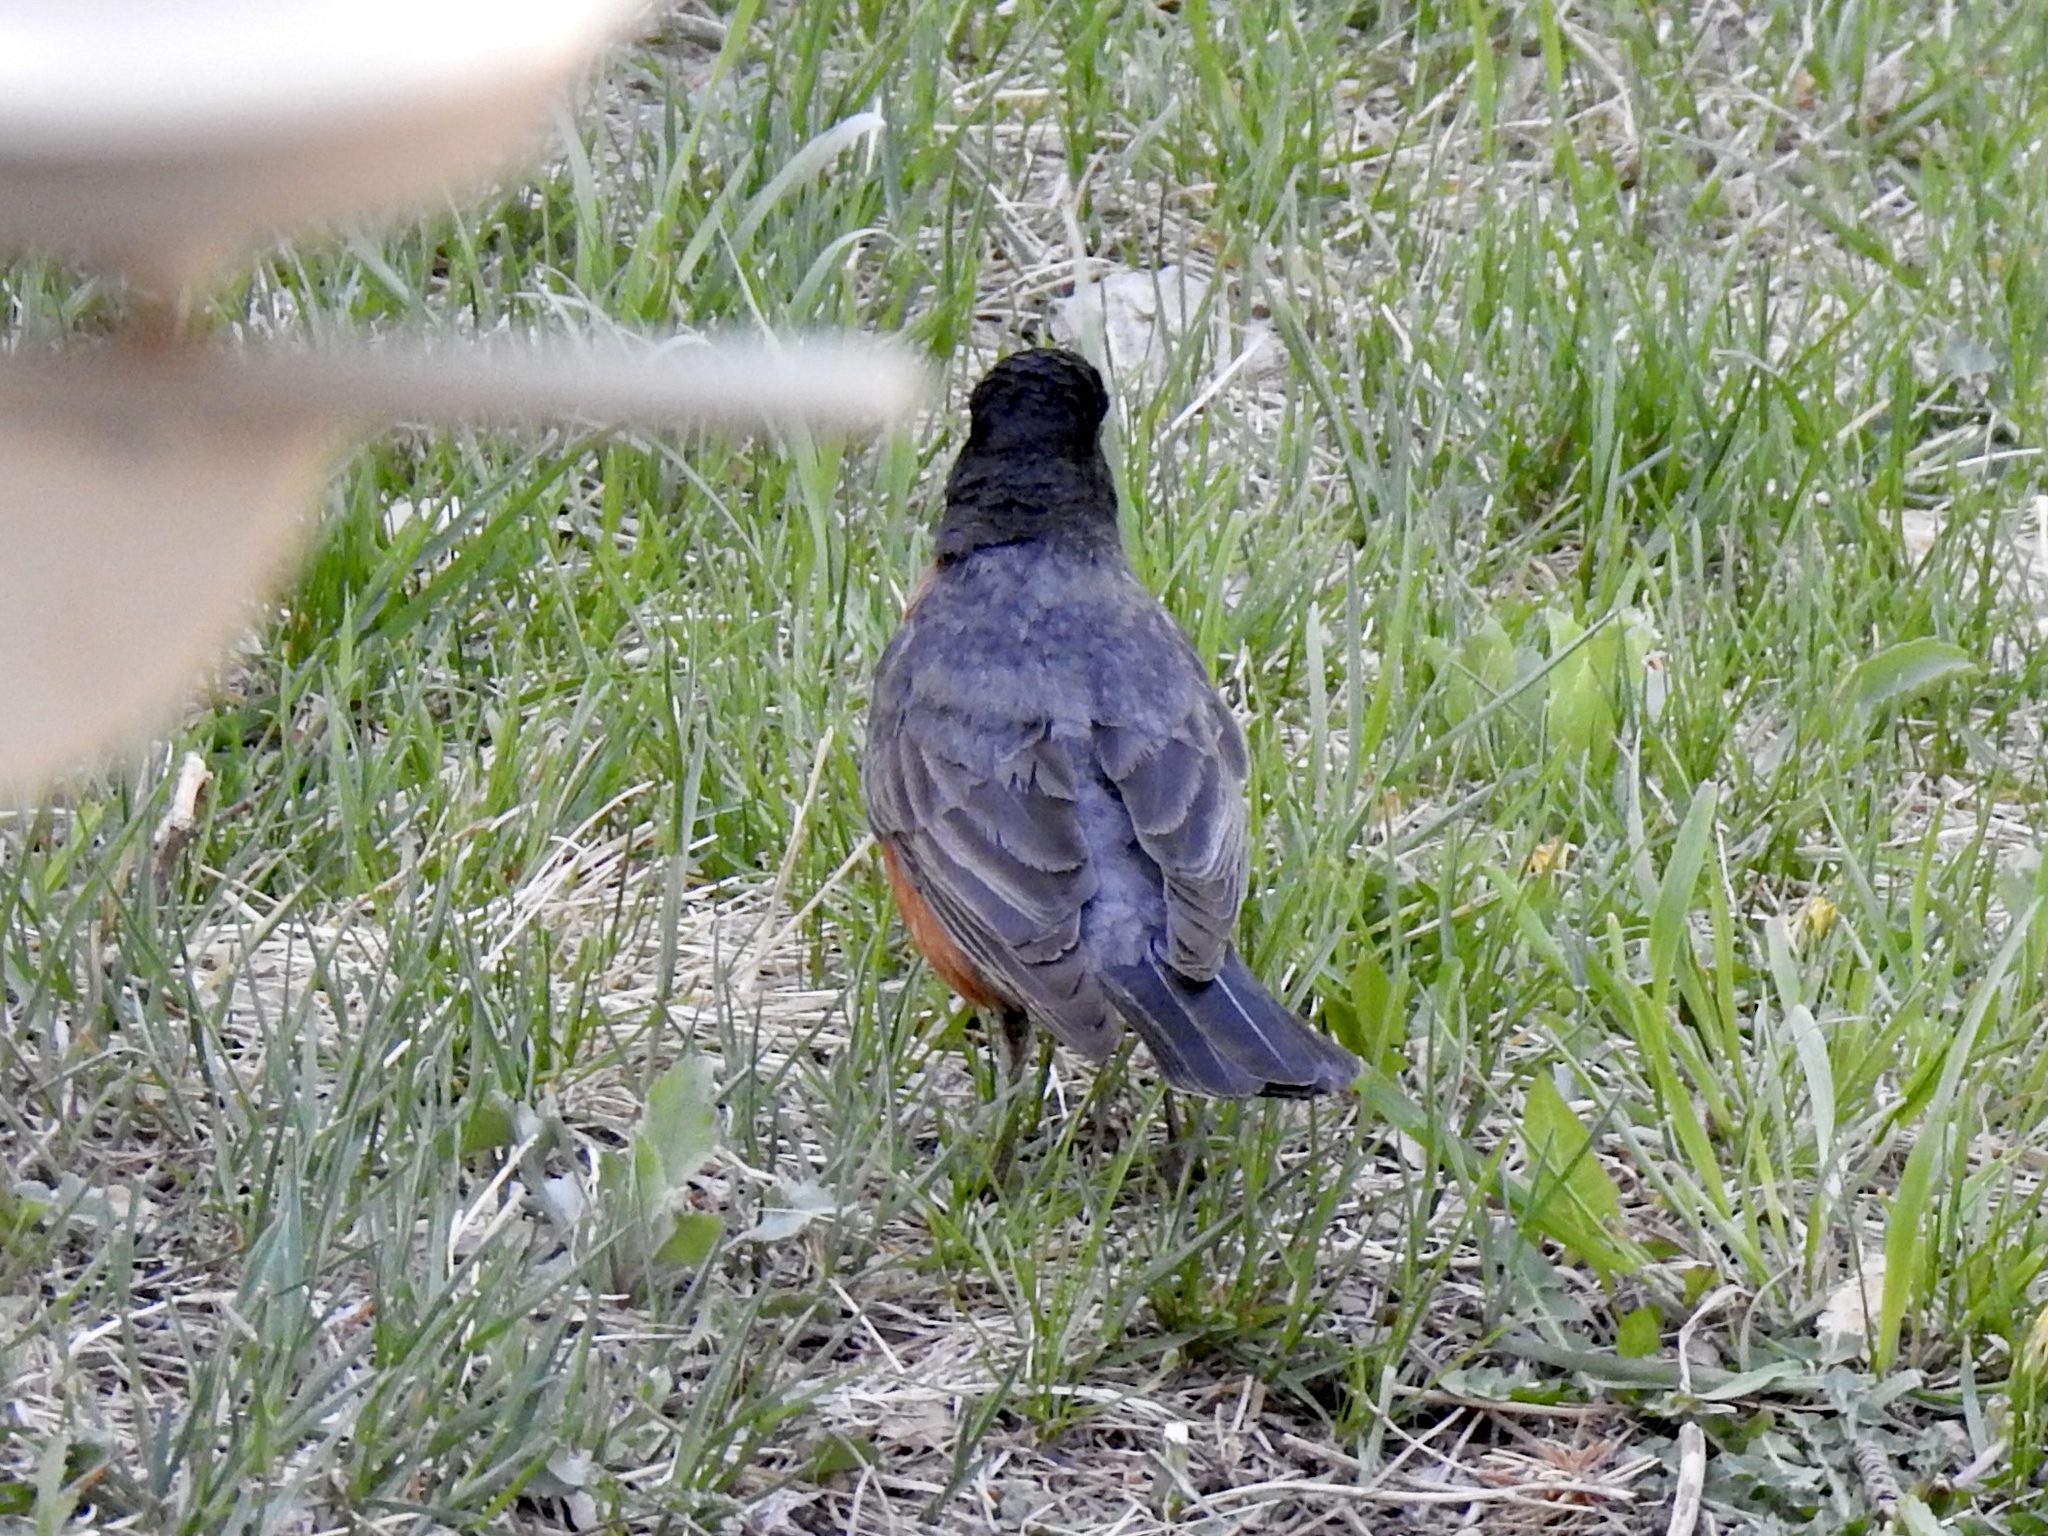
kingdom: Animalia
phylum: Chordata
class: Aves
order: Passeriformes
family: Turdidae
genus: Turdus
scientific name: Turdus migratorius
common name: American robin
